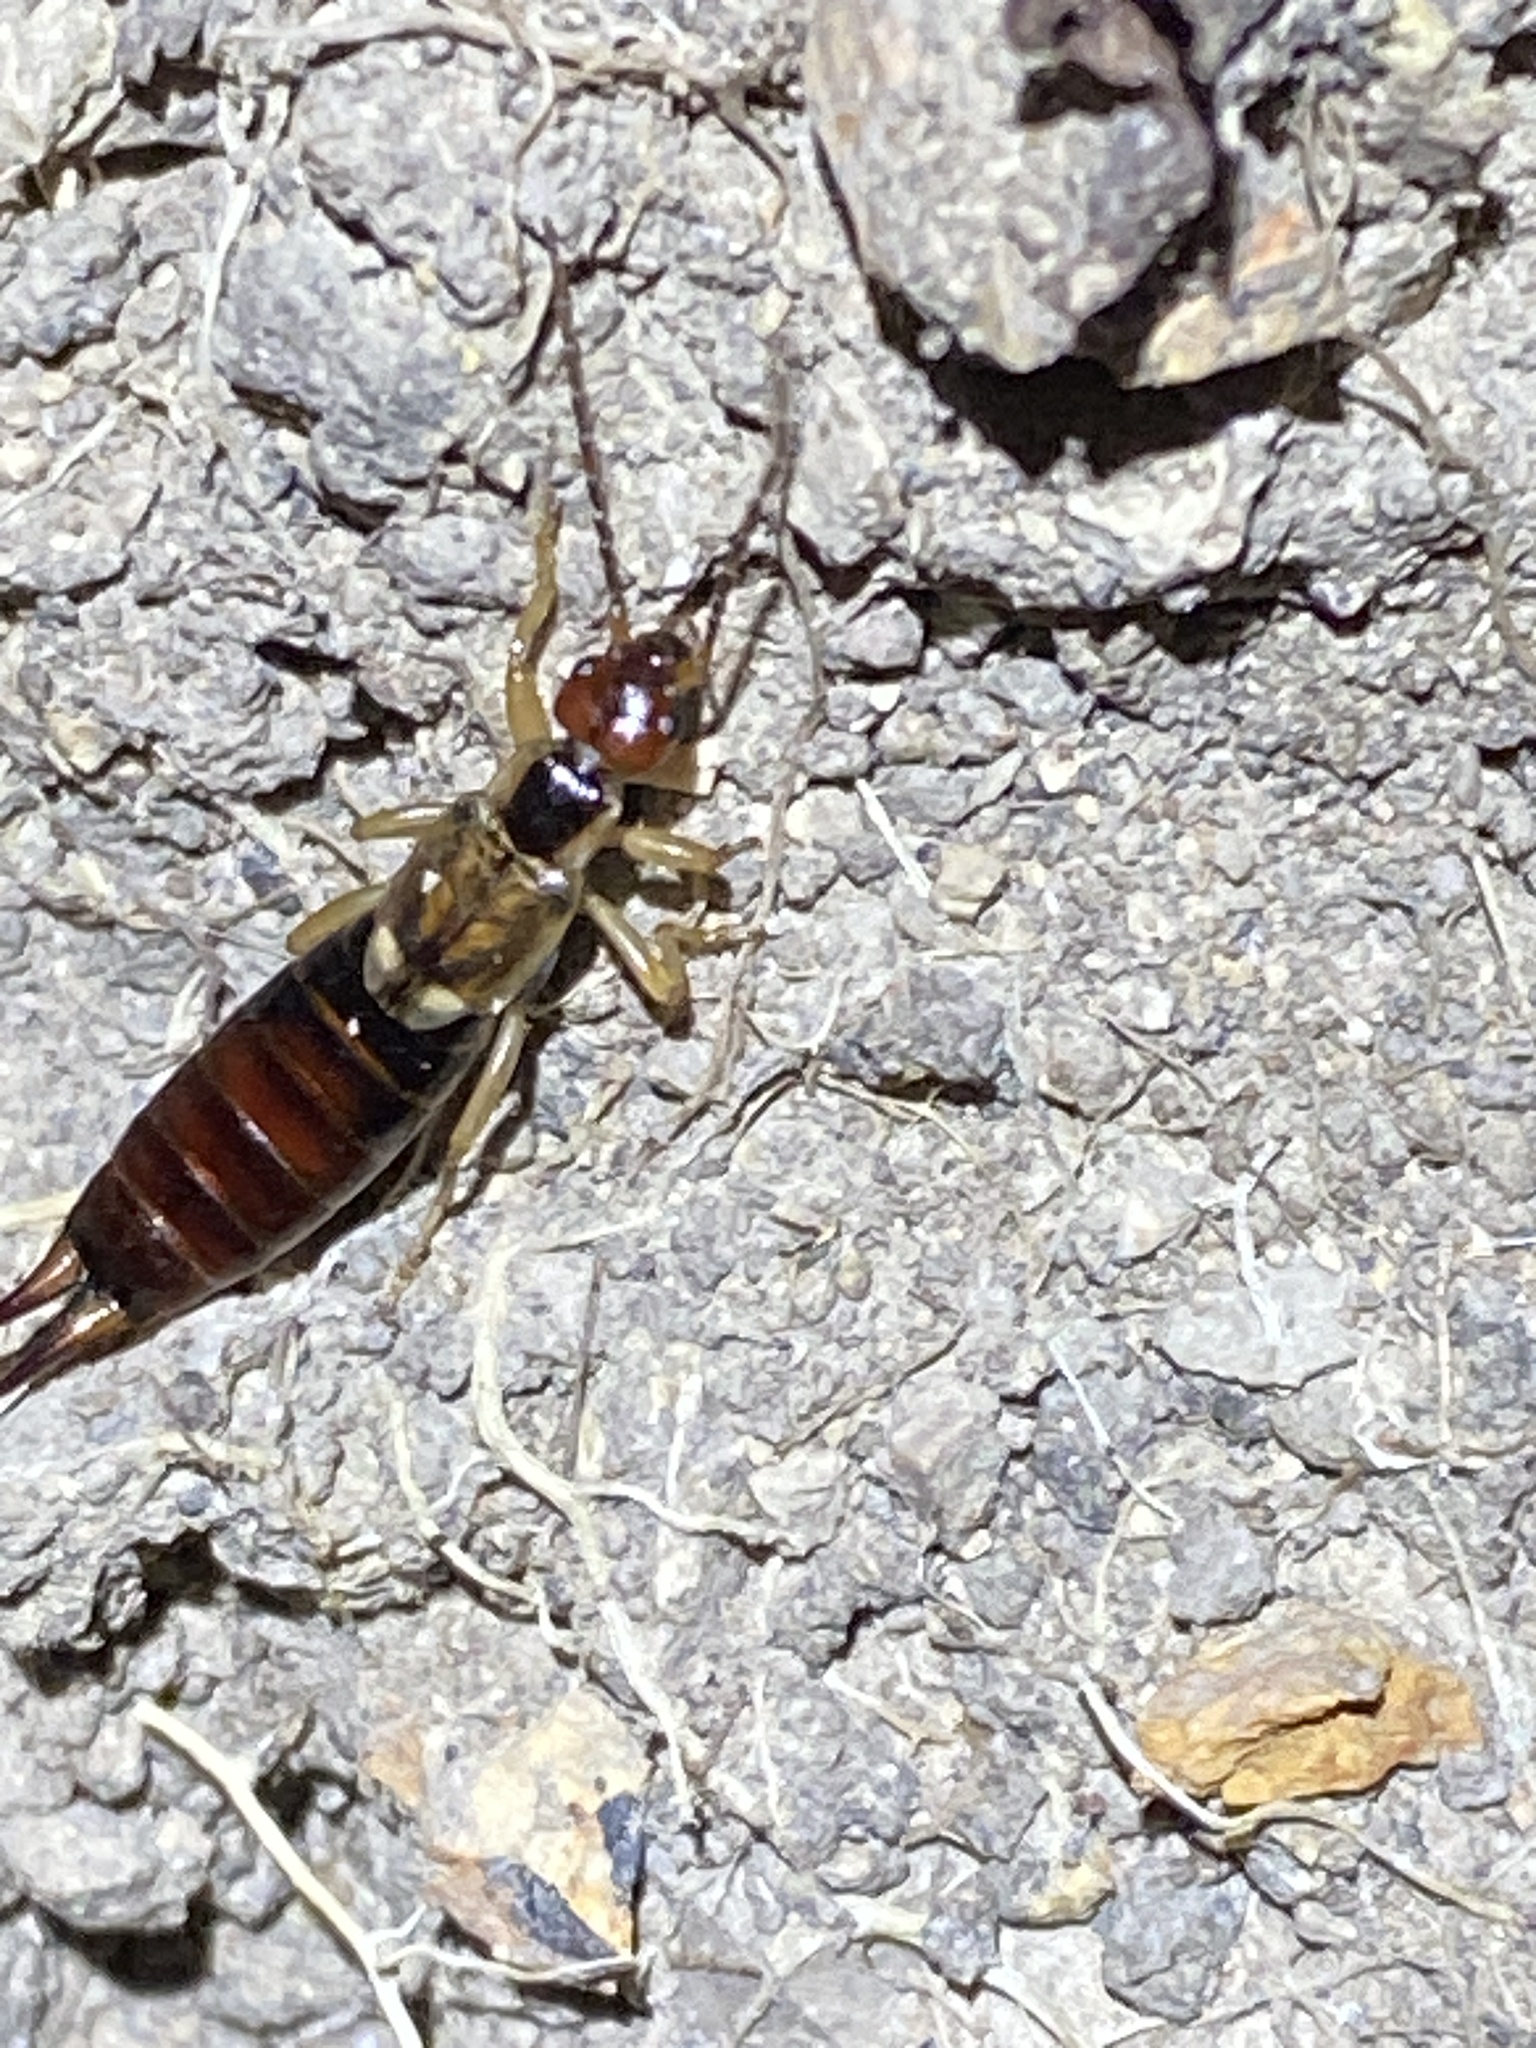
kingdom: Animalia
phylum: Arthropoda
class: Insecta
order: Dermaptera
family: Forficulidae
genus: Forficula
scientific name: Forficula dentata
